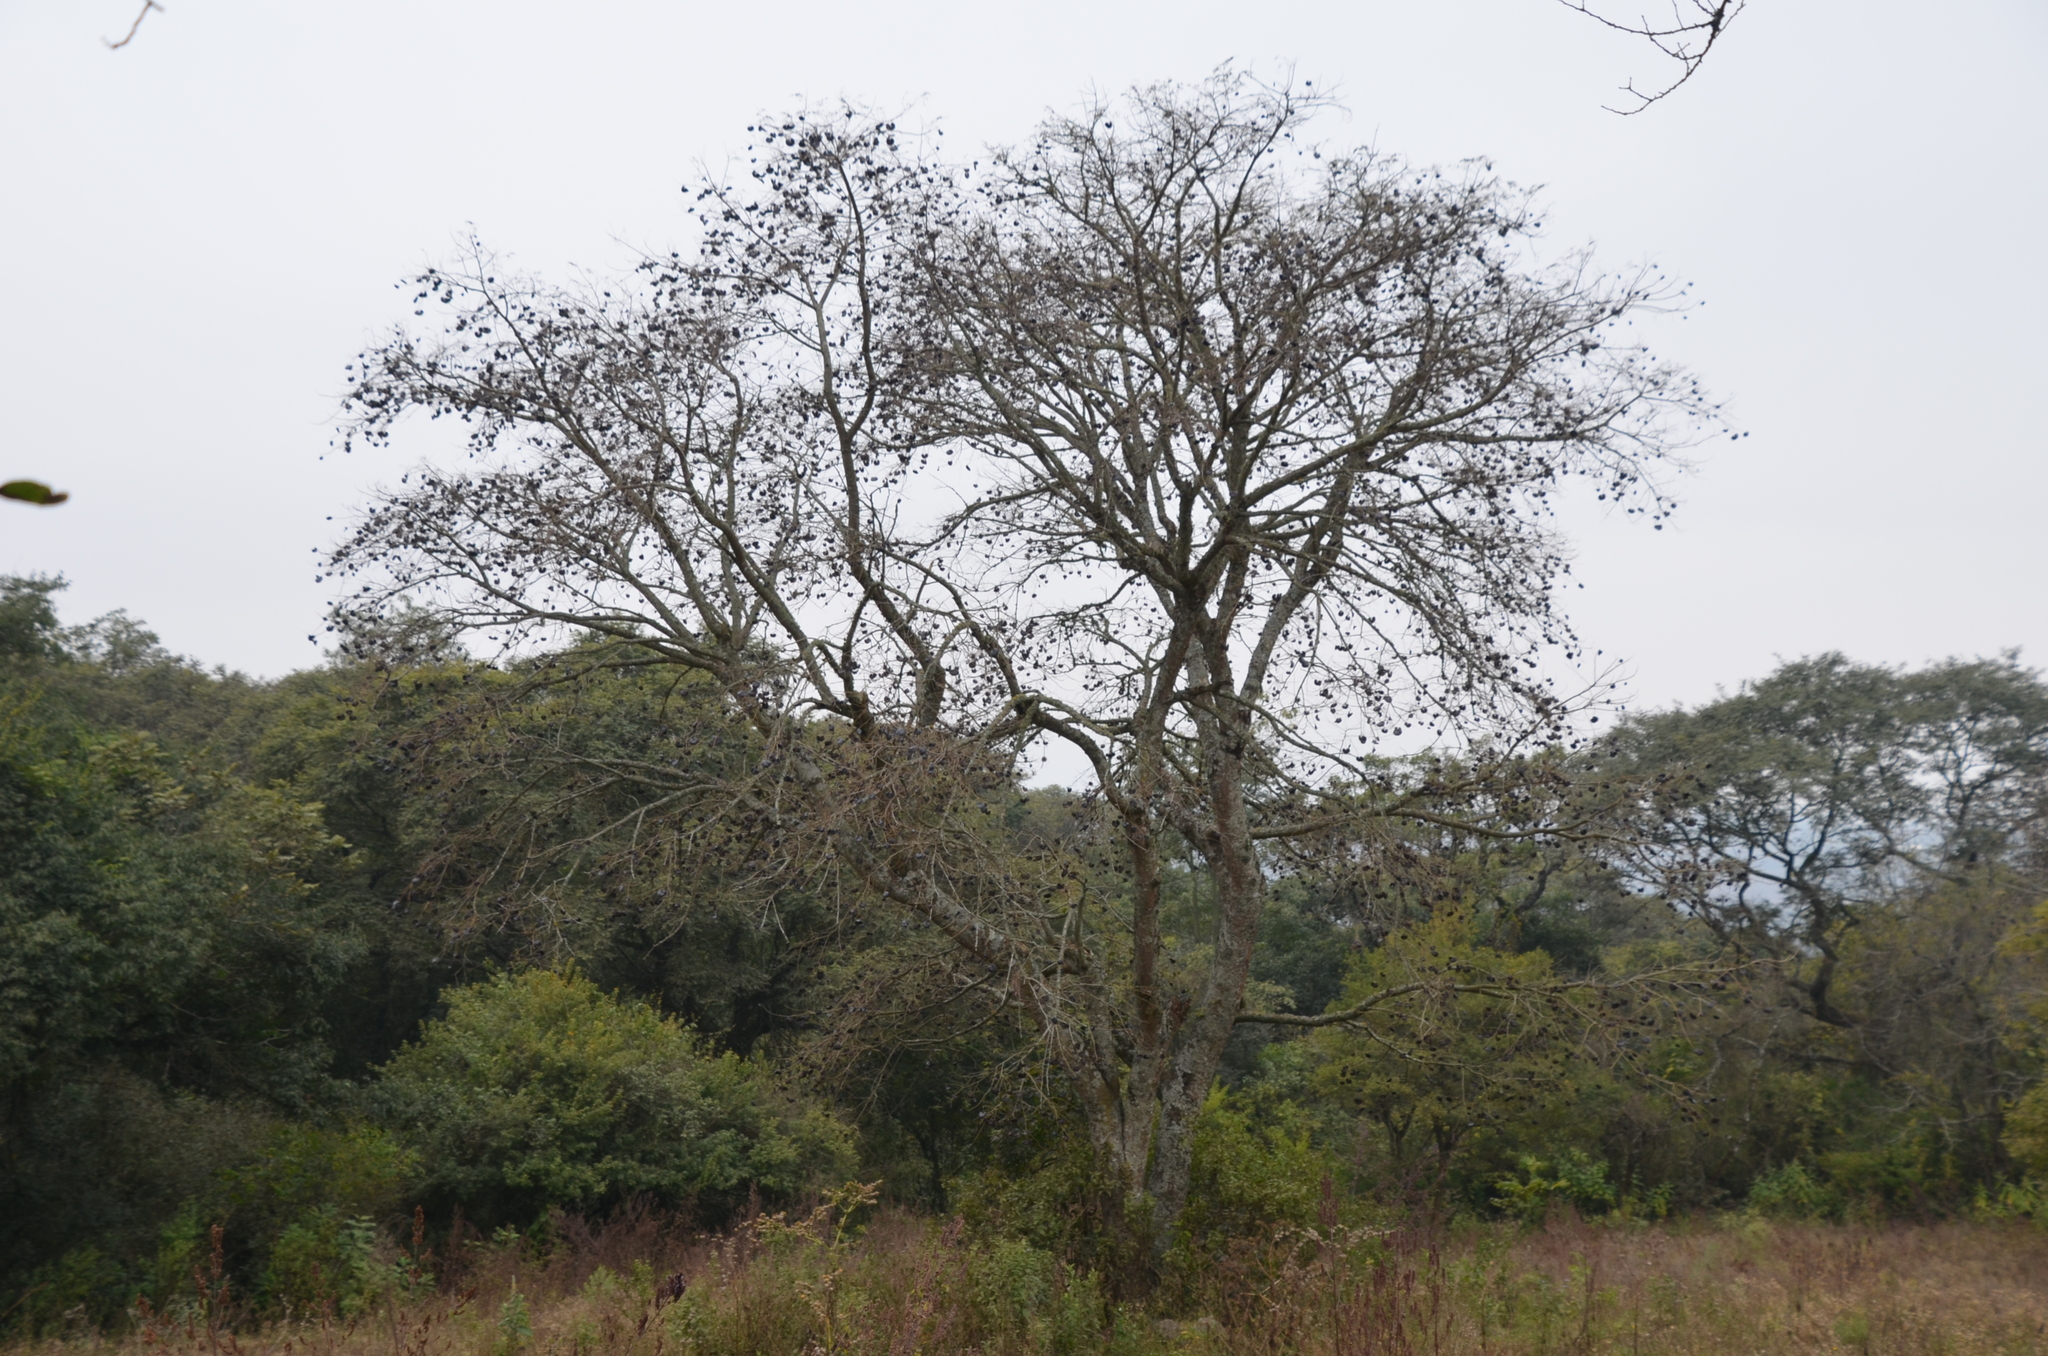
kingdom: Plantae
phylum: Tracheophyta
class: Magnoliopsida
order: Fabales
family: Fabaceae
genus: Enterolobium
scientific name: Enterolobium contortisiliquum
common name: Pacara earpod tree
